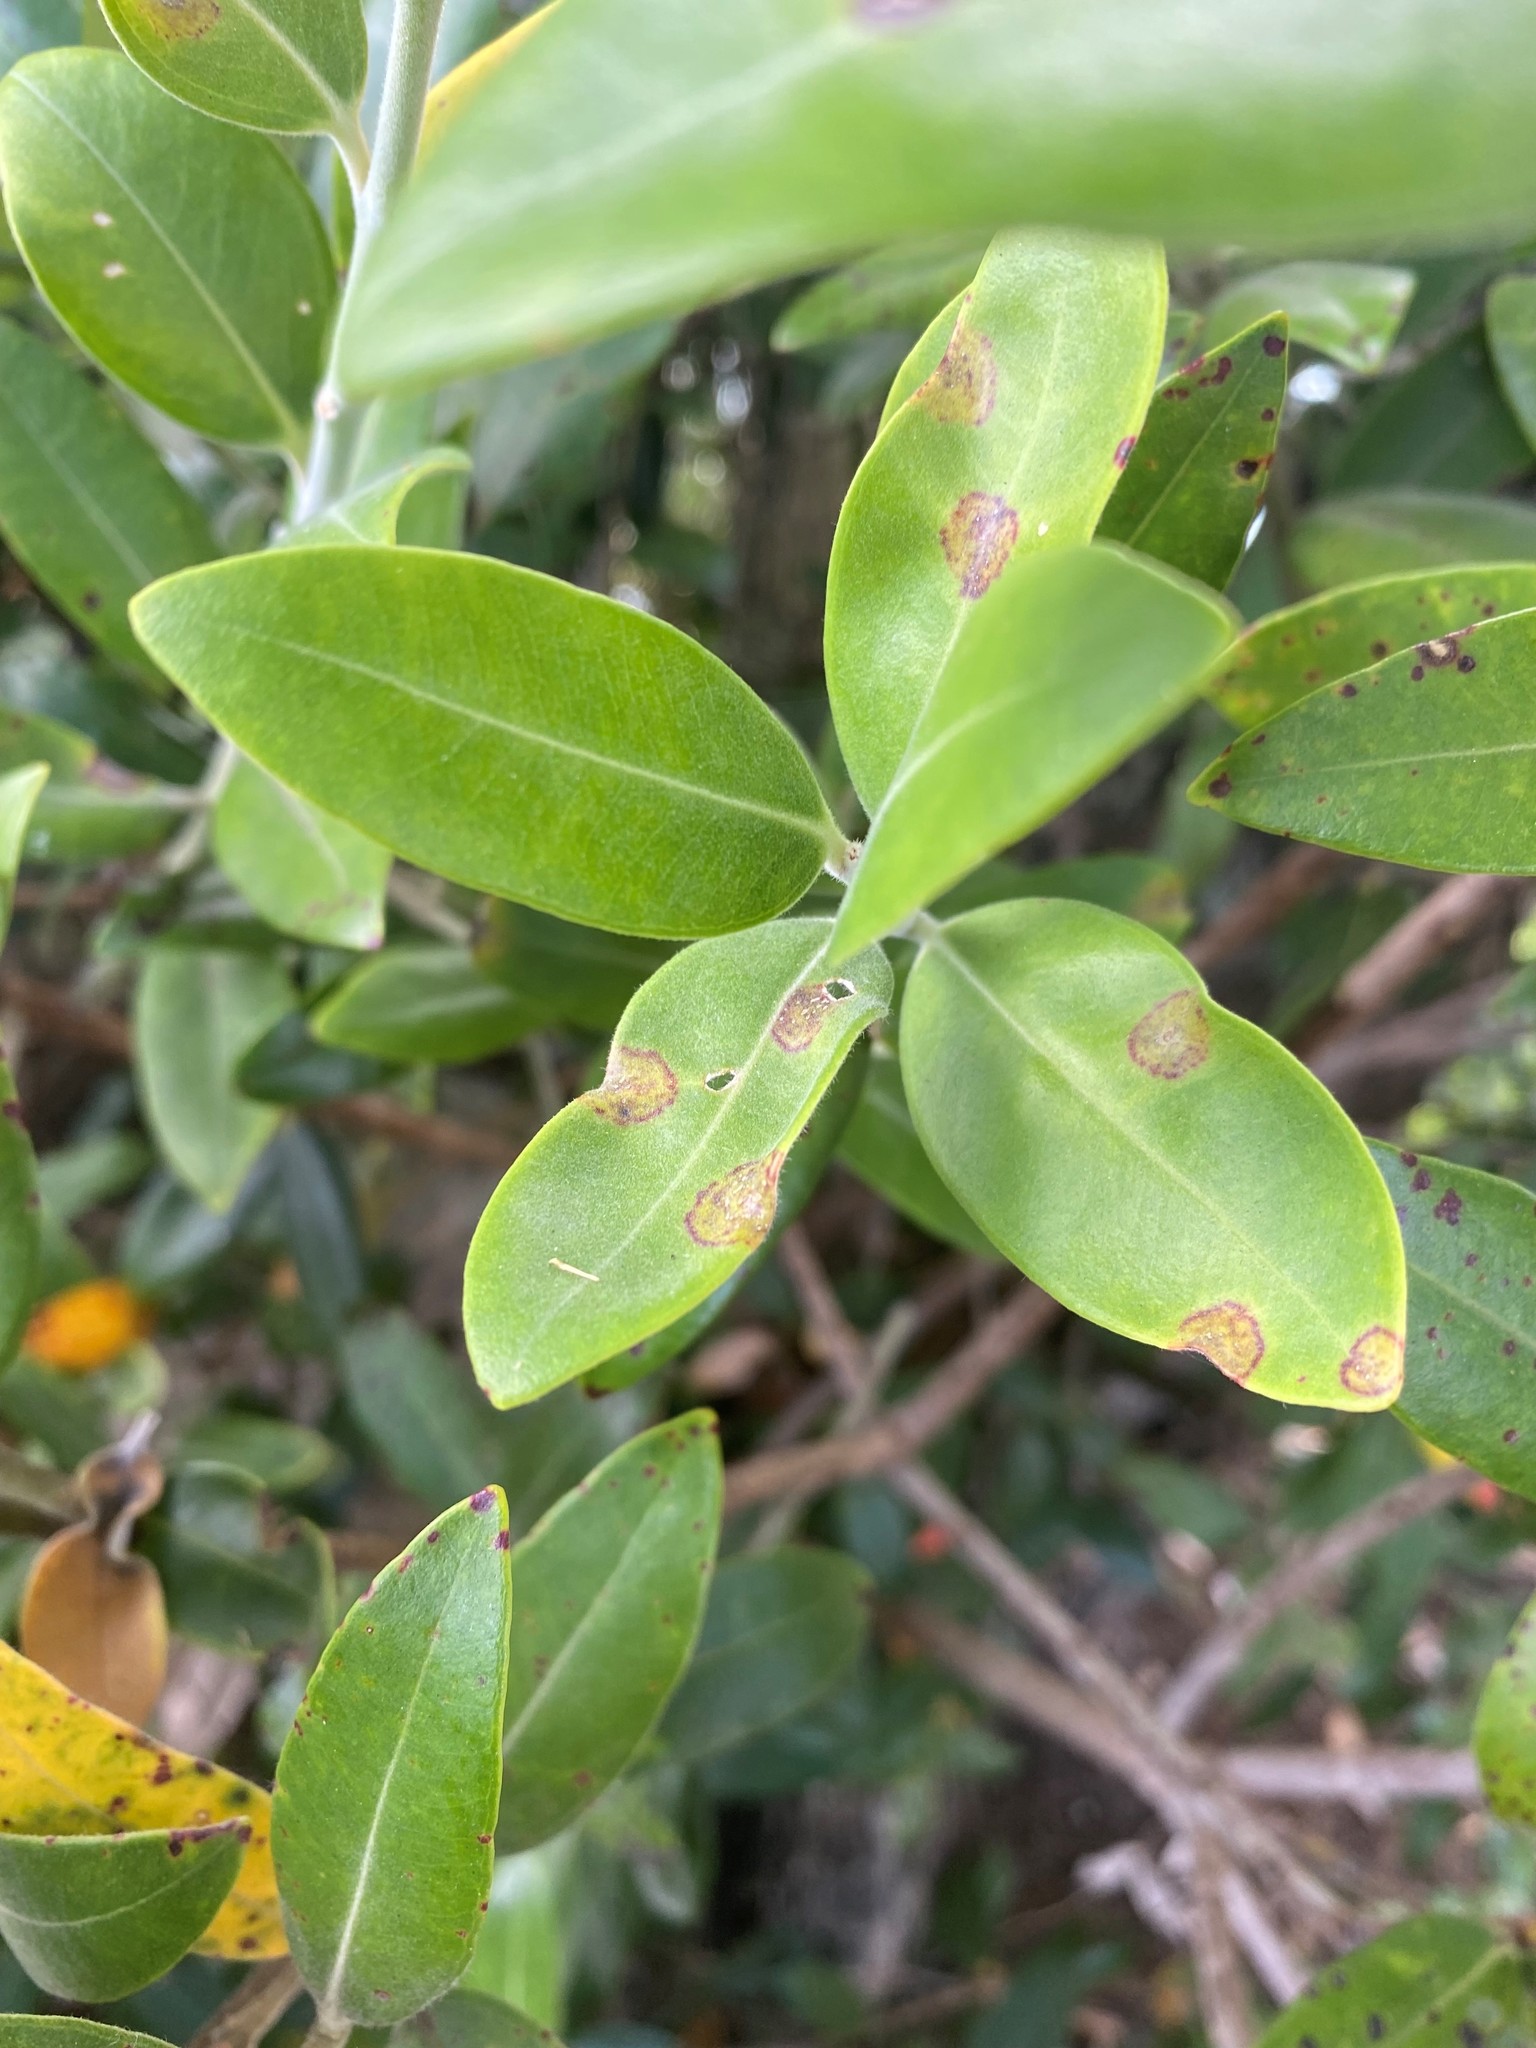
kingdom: Fungi
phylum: Basidiomycota
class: Pucciniomycetes
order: Pucciniales
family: Sphaerophragmiaceae
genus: Austropuccinia
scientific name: Austropuccinia psidii
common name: Myrtle rust
